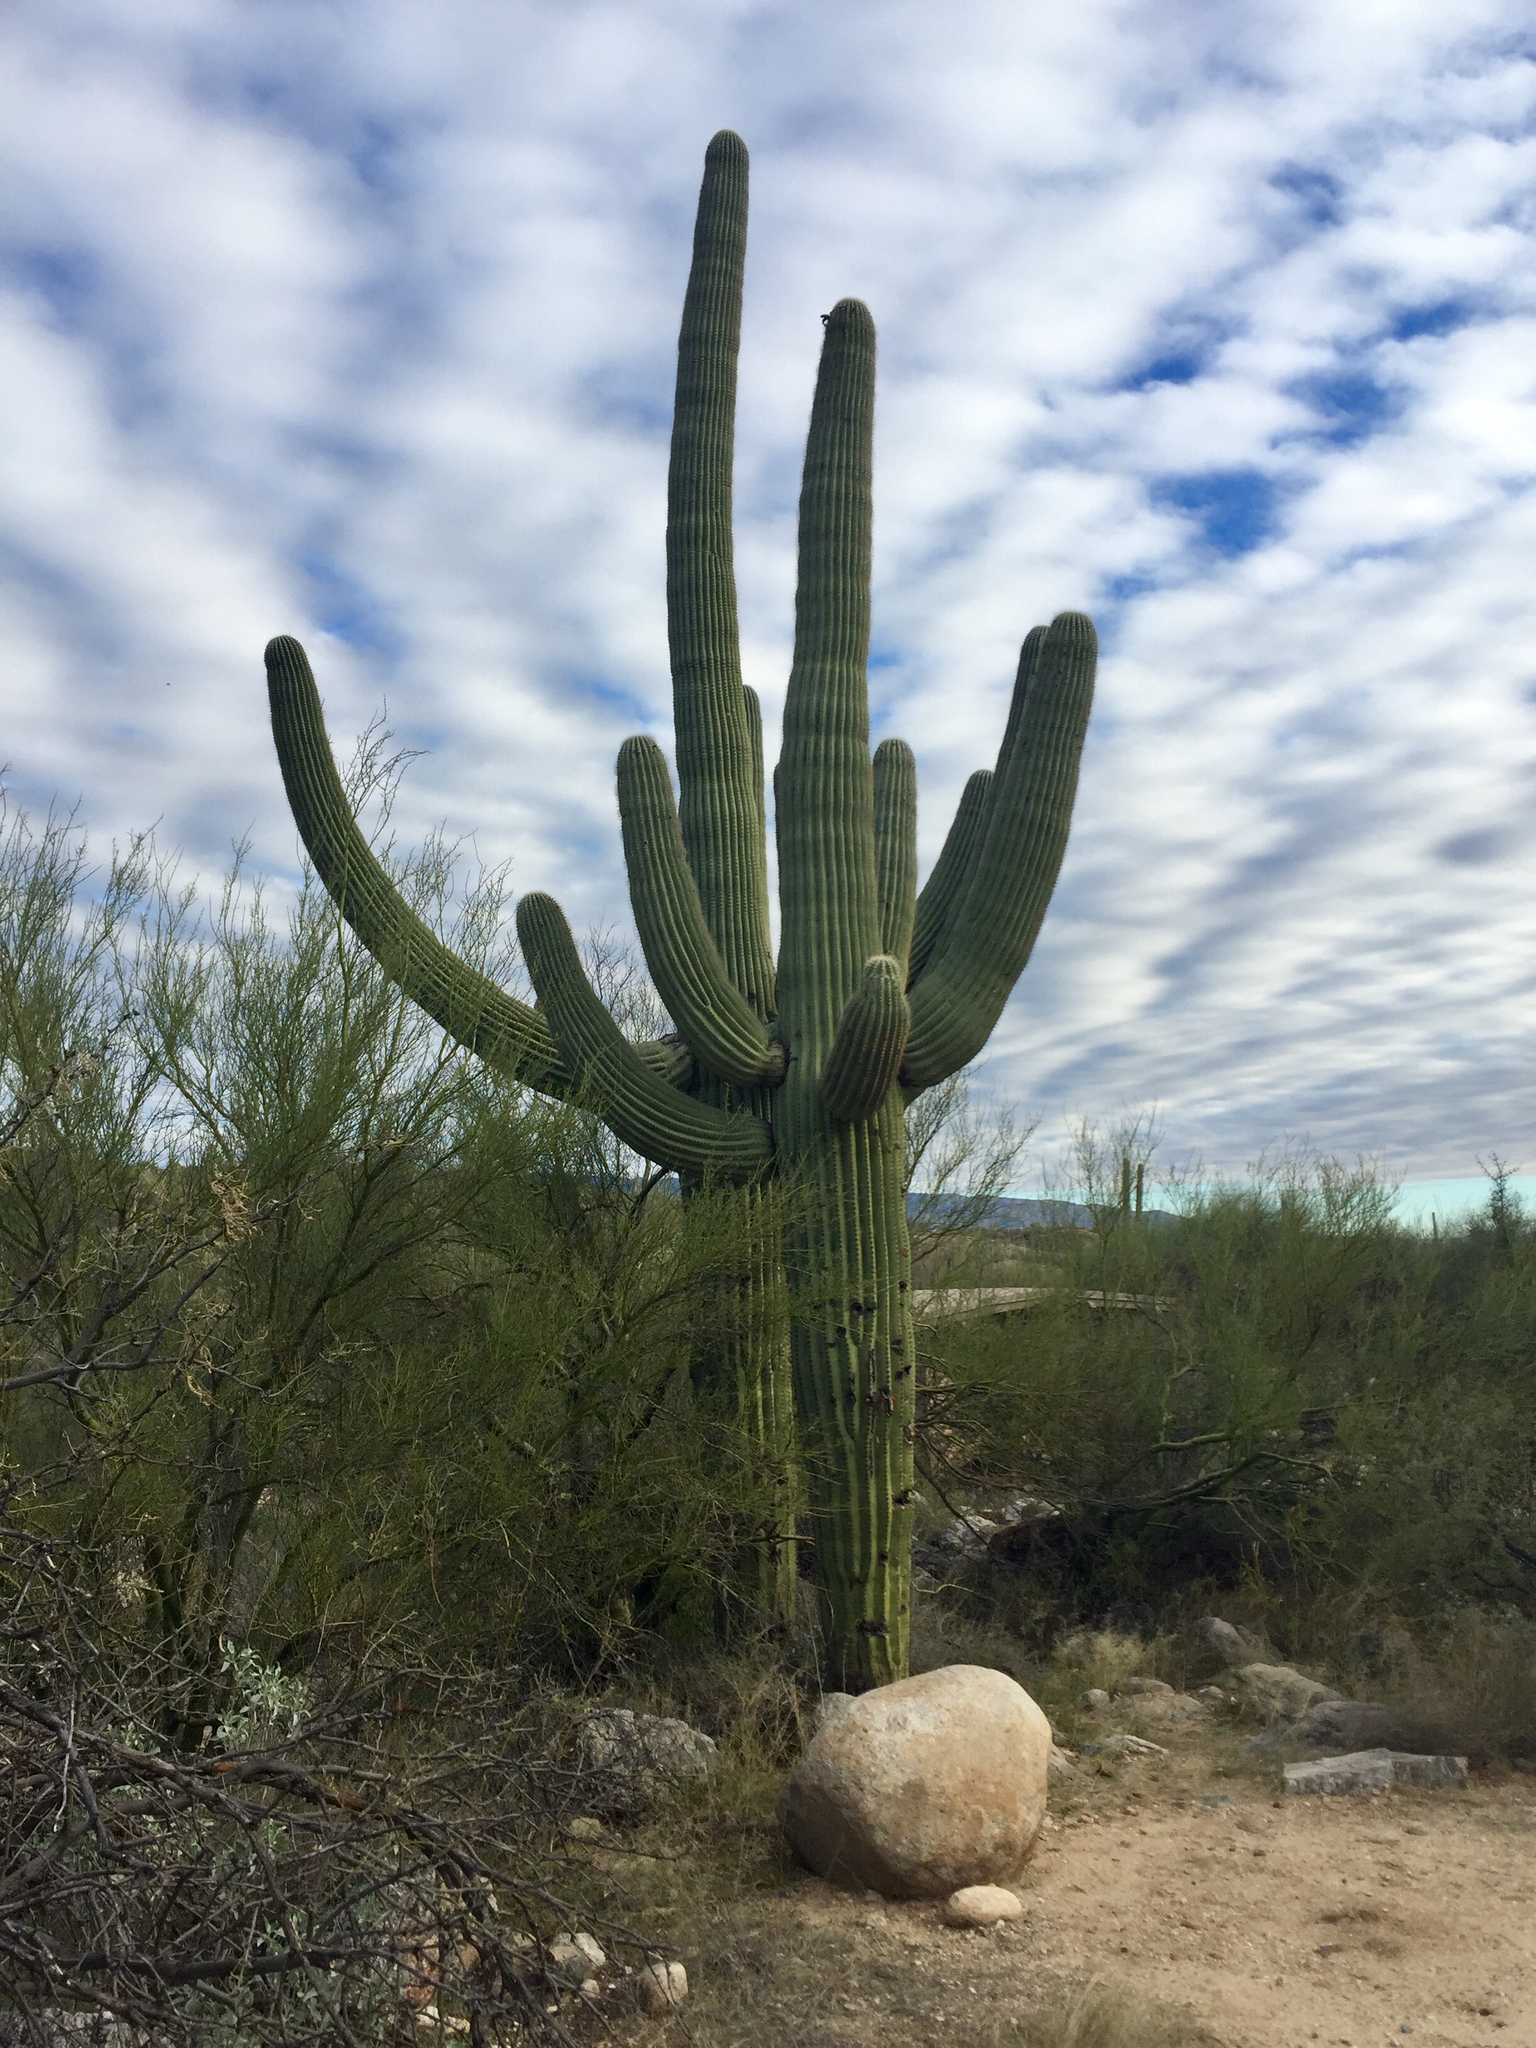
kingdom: Plantae
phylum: Tracheophyta
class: Magnoliopsida
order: Caryophyllales
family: Cactaceae
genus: Carnegiea
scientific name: Carnegiea gigantea
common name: Saguaro
